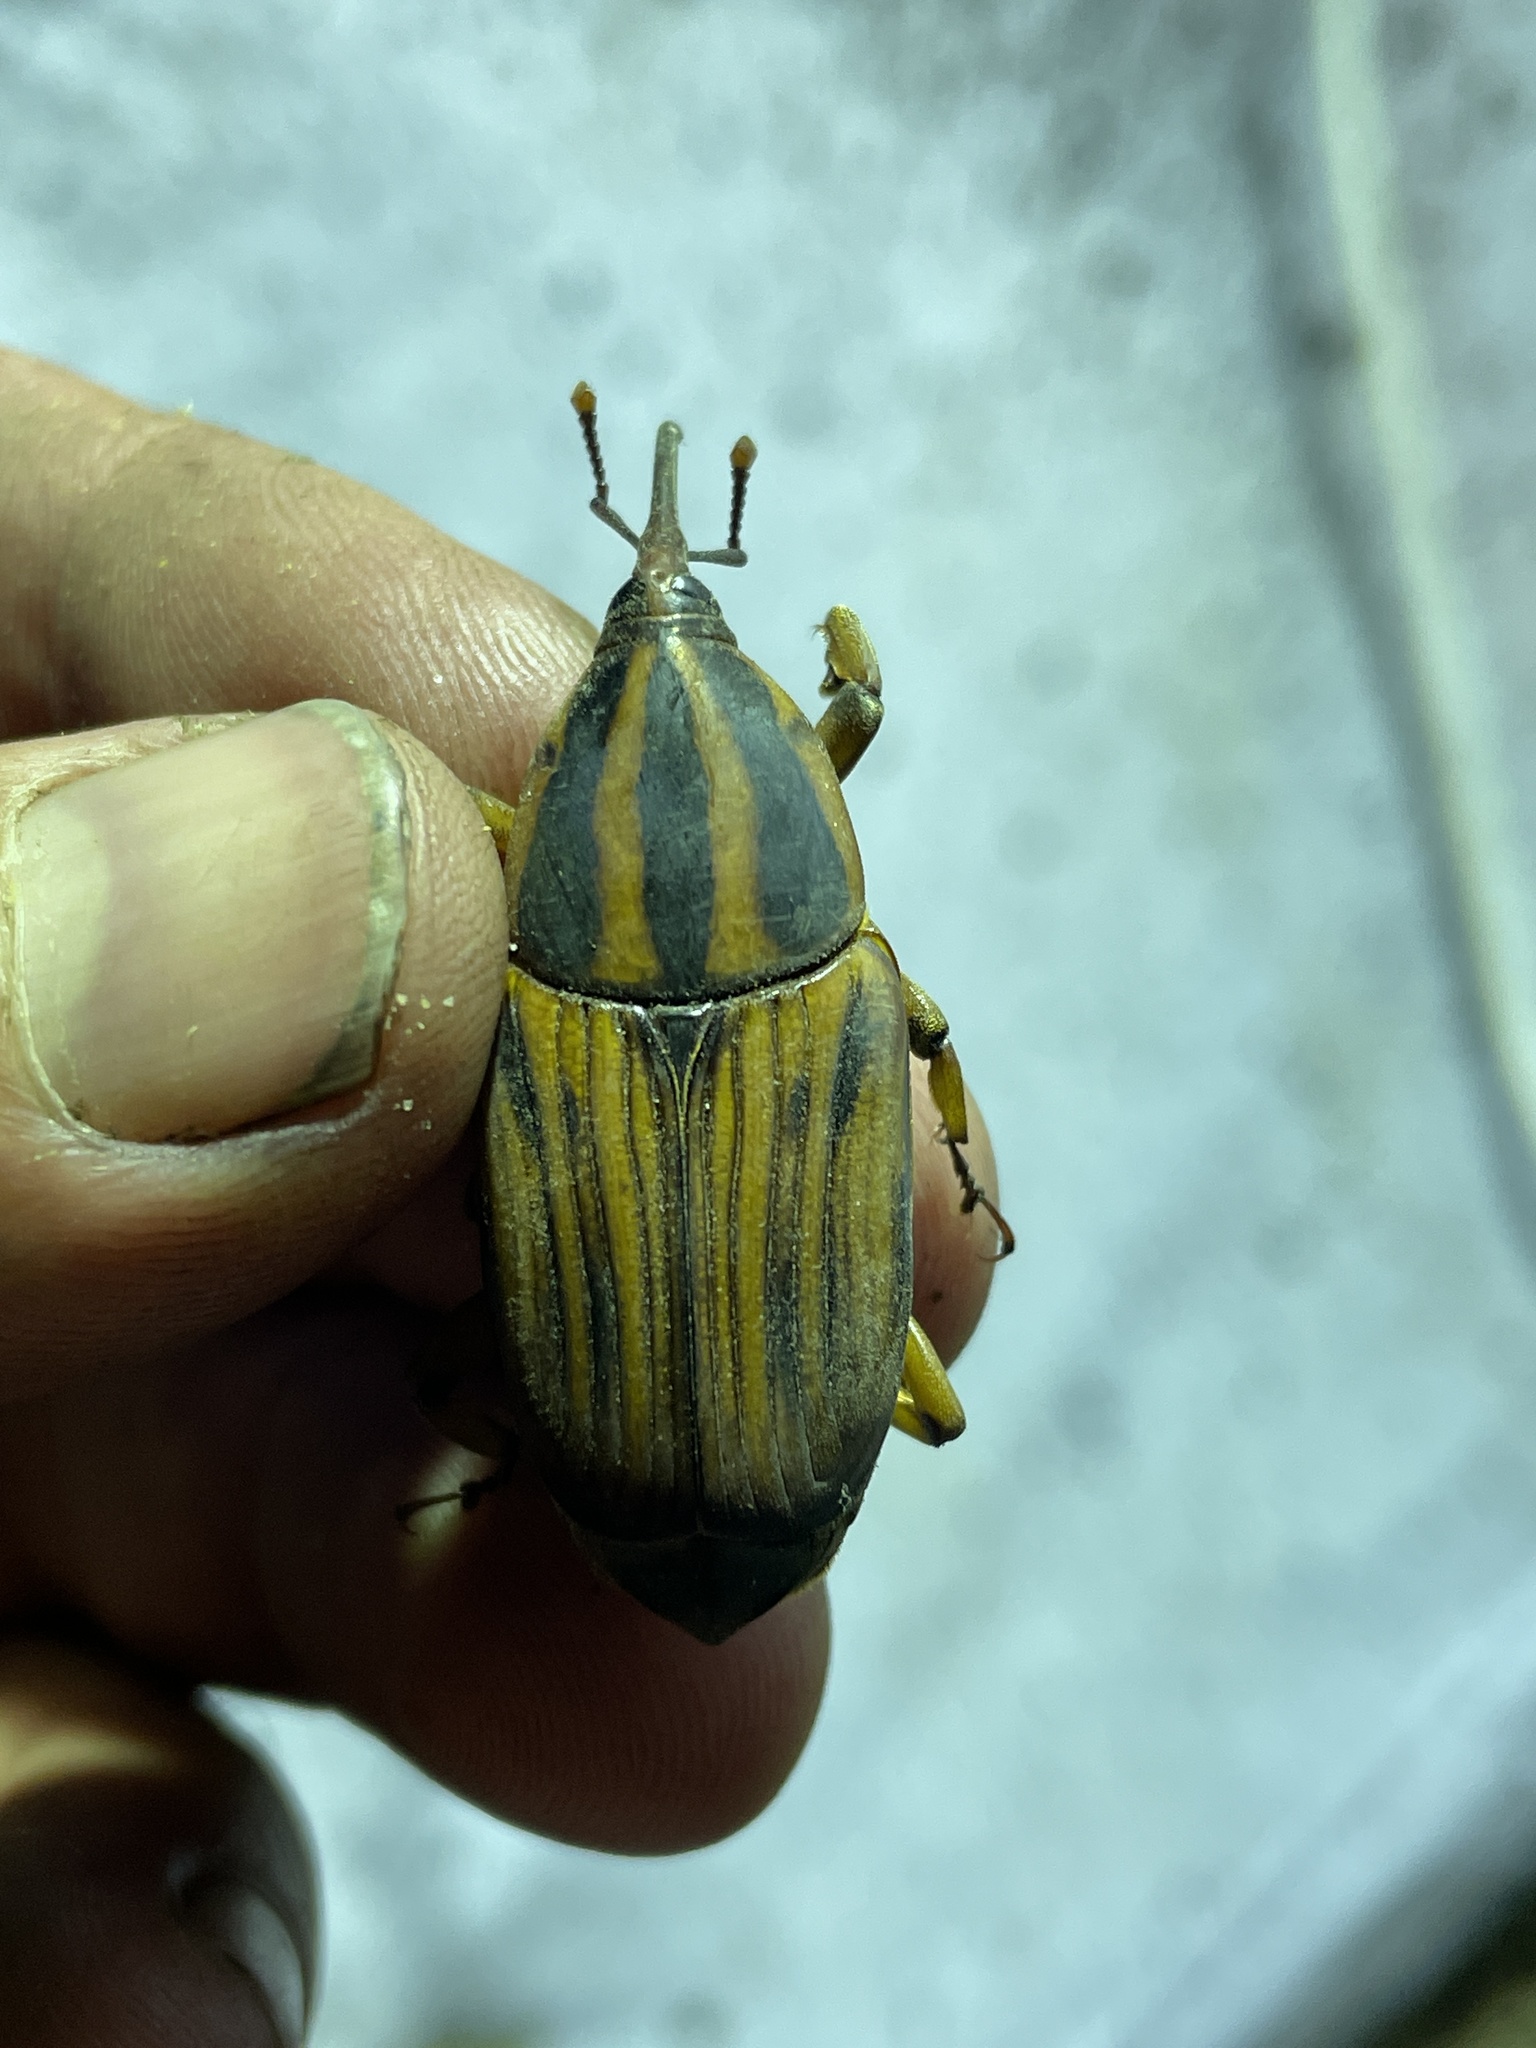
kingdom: Animalia
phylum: Arthropoda
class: Insecta
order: Coleoptera
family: Dryophthoridae
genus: Rhynchophorus
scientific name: Rhynchophorus phoenicis
